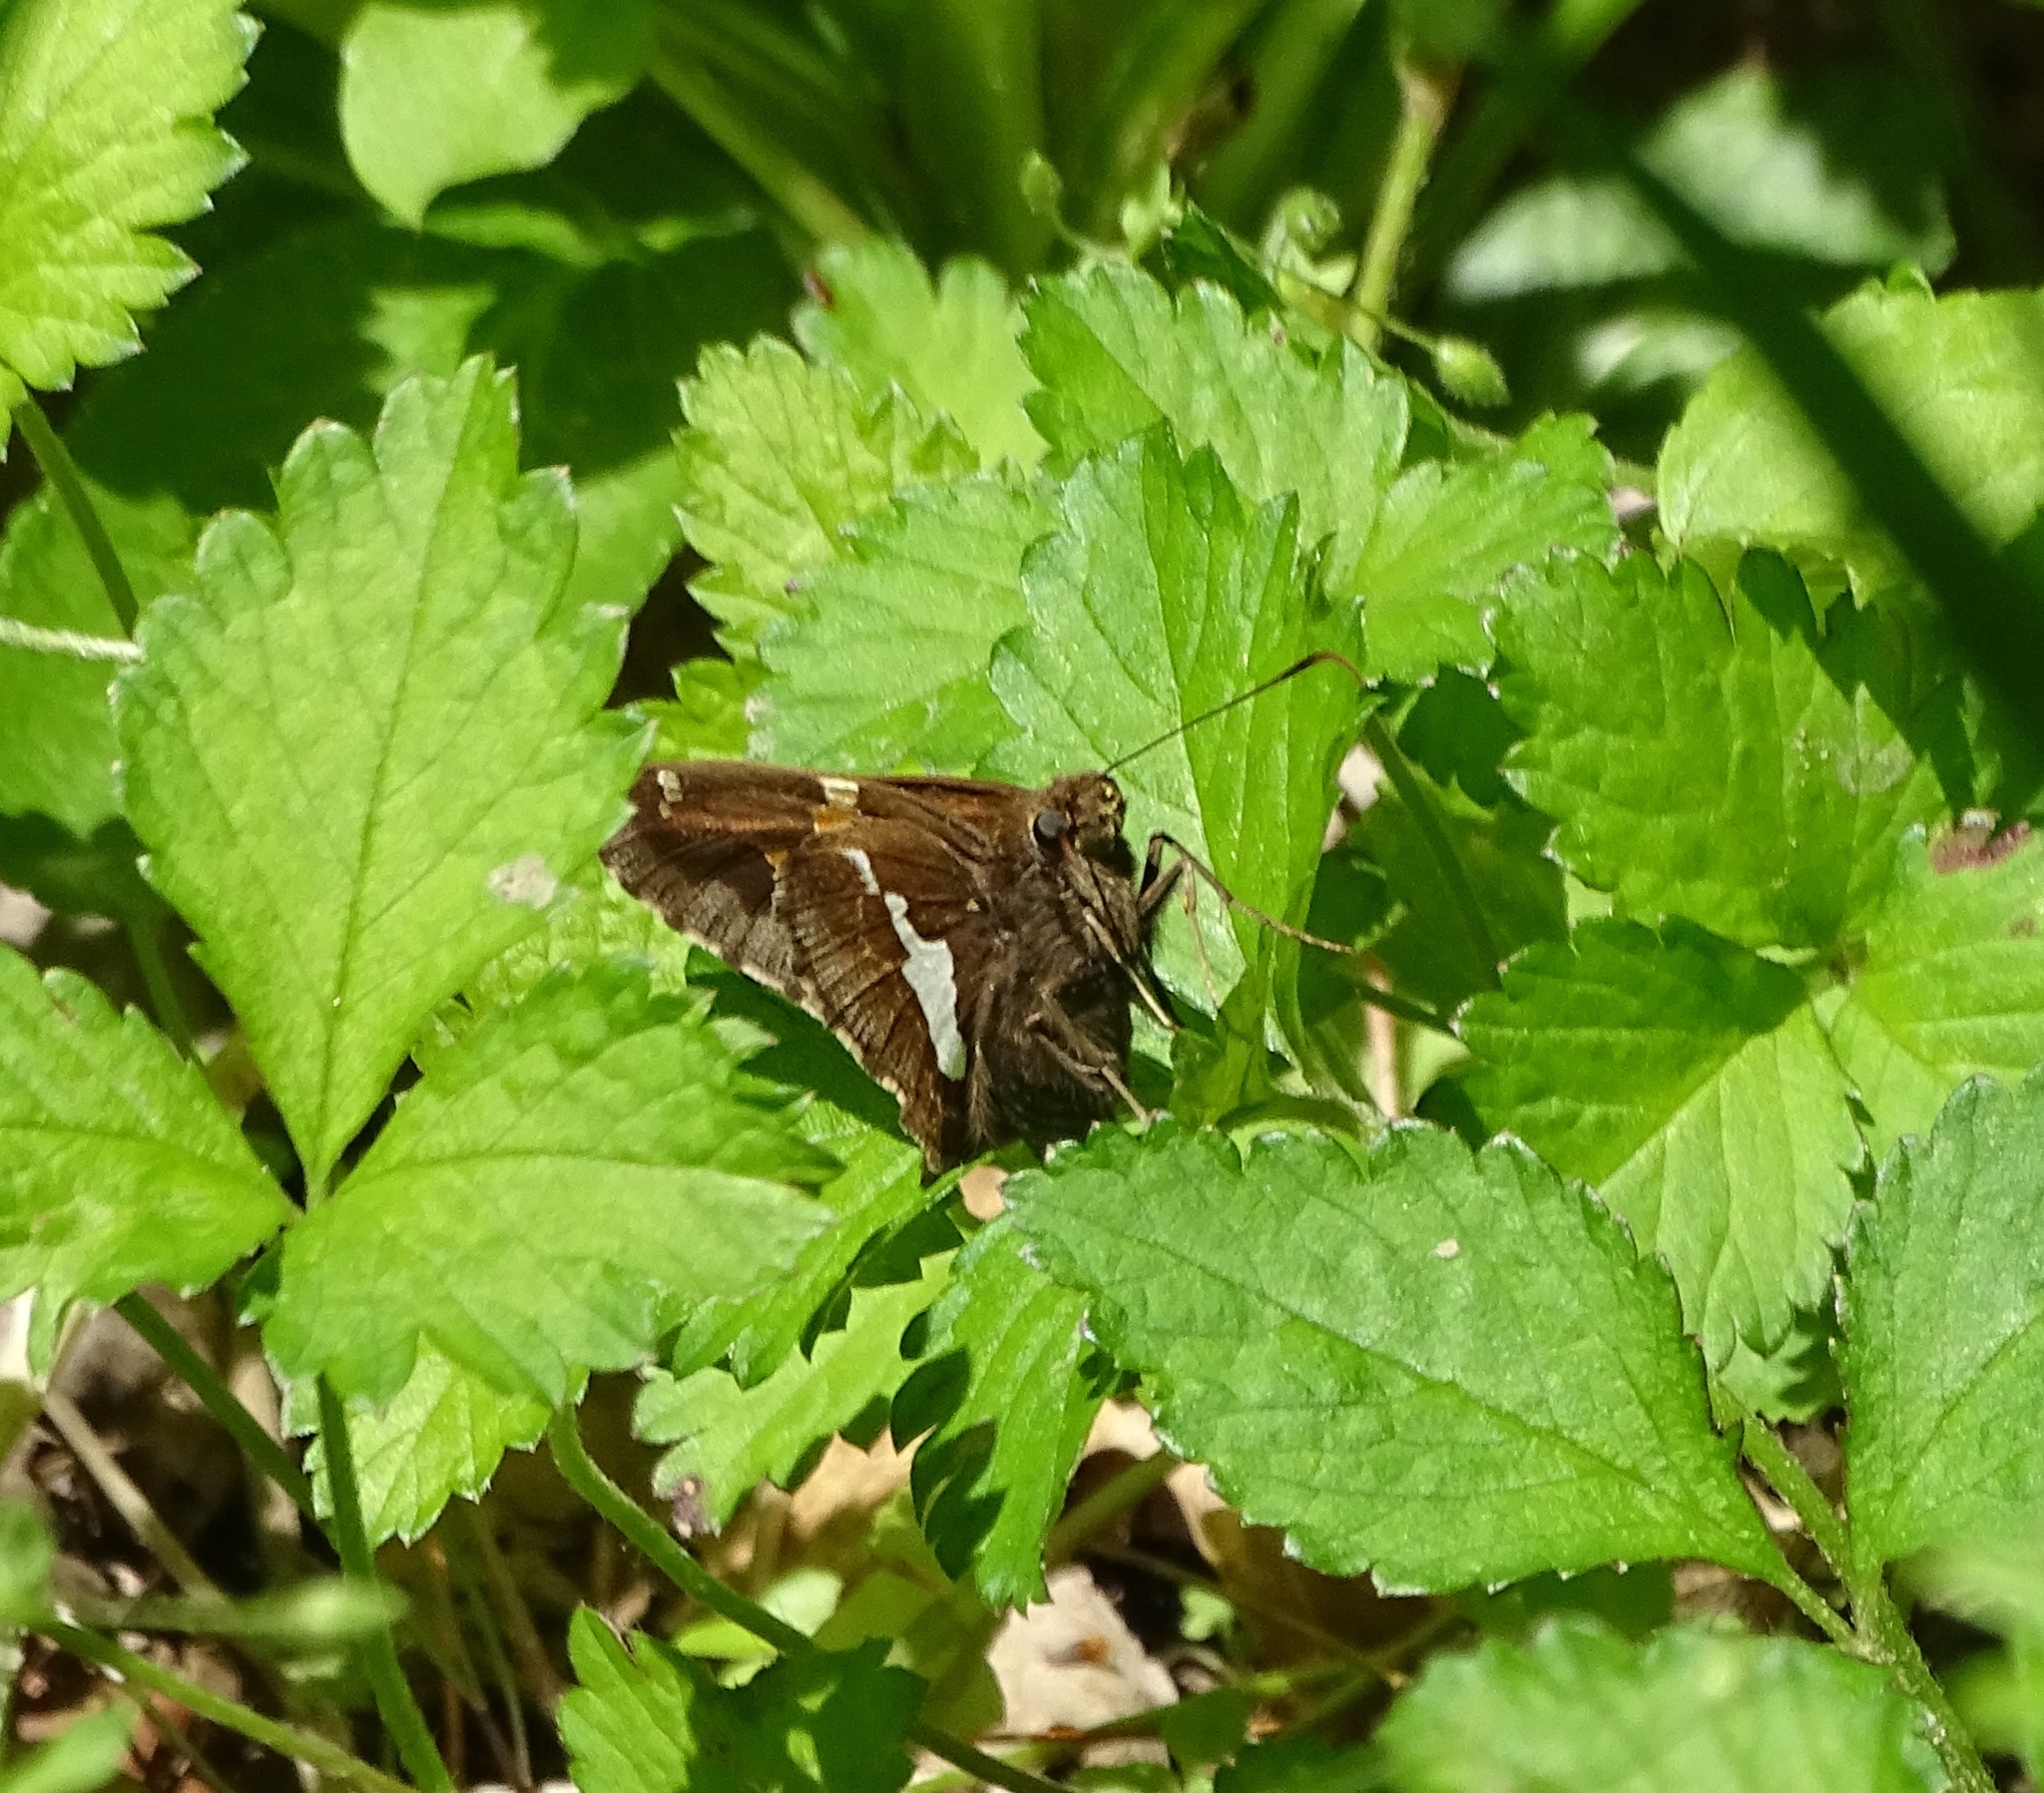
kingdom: Animalia
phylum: Arthropoda
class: Insecta
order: Lepidoptera
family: Hesperiidae
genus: Epargyreus
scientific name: Epargyreus clarus
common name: Silver-spotted skipper
